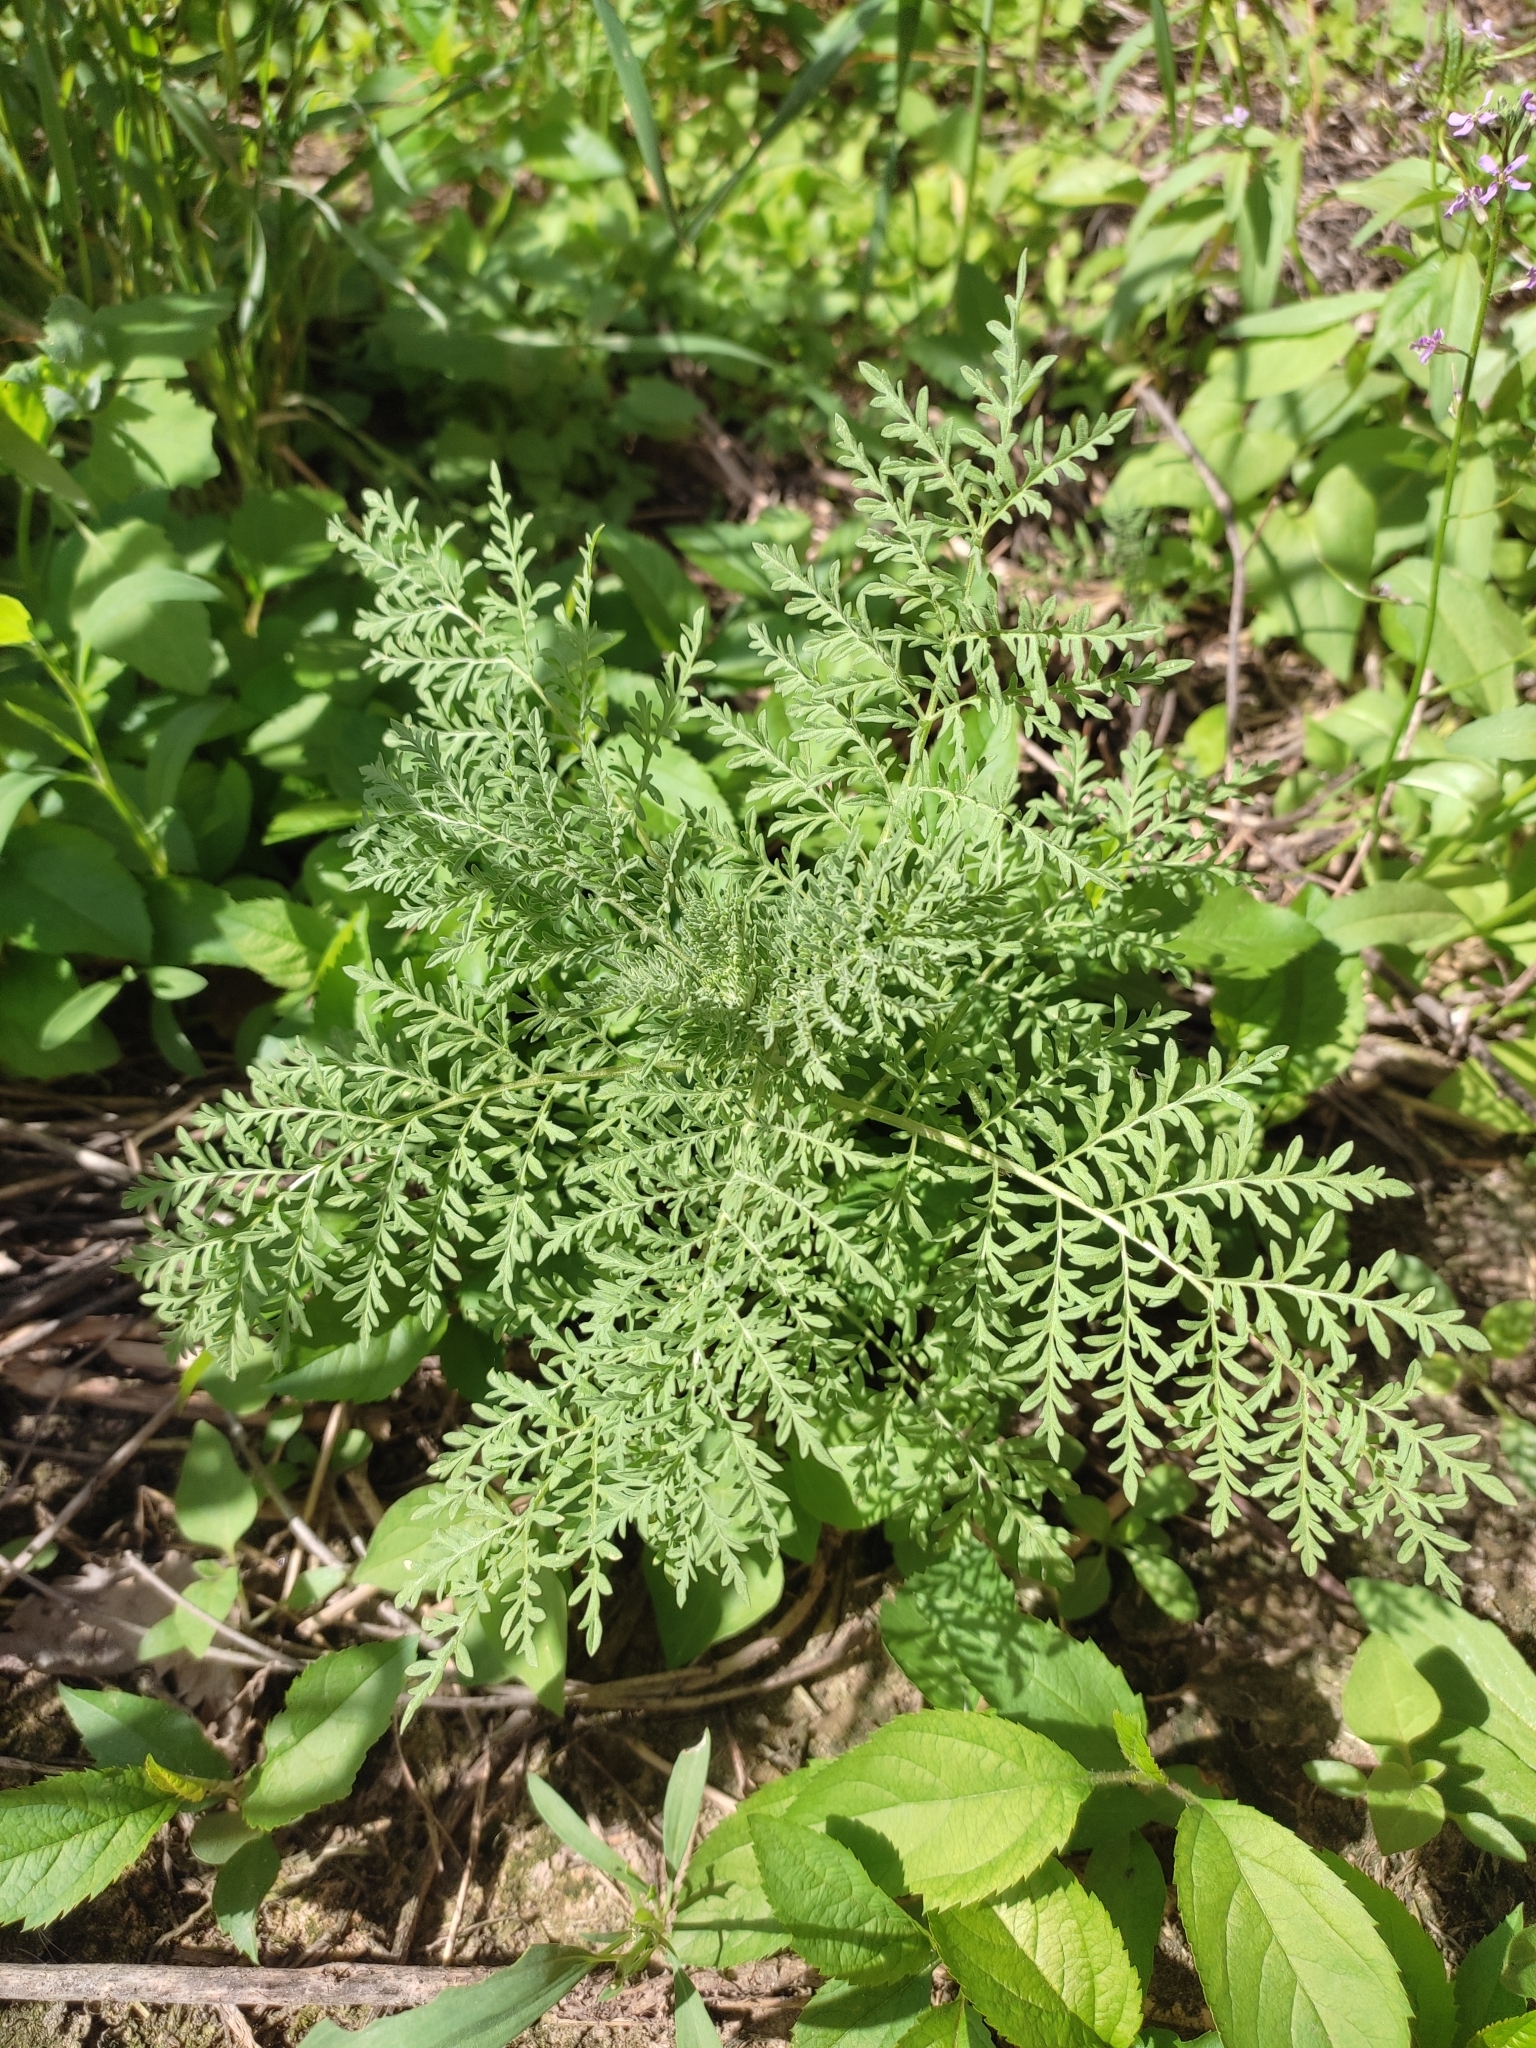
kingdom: Plantae
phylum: Tracheophyta
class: Magnoliopsida
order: Brassicales
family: Brassicaceae
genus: Descurainia
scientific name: Descurainia sophia
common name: Flixweed
